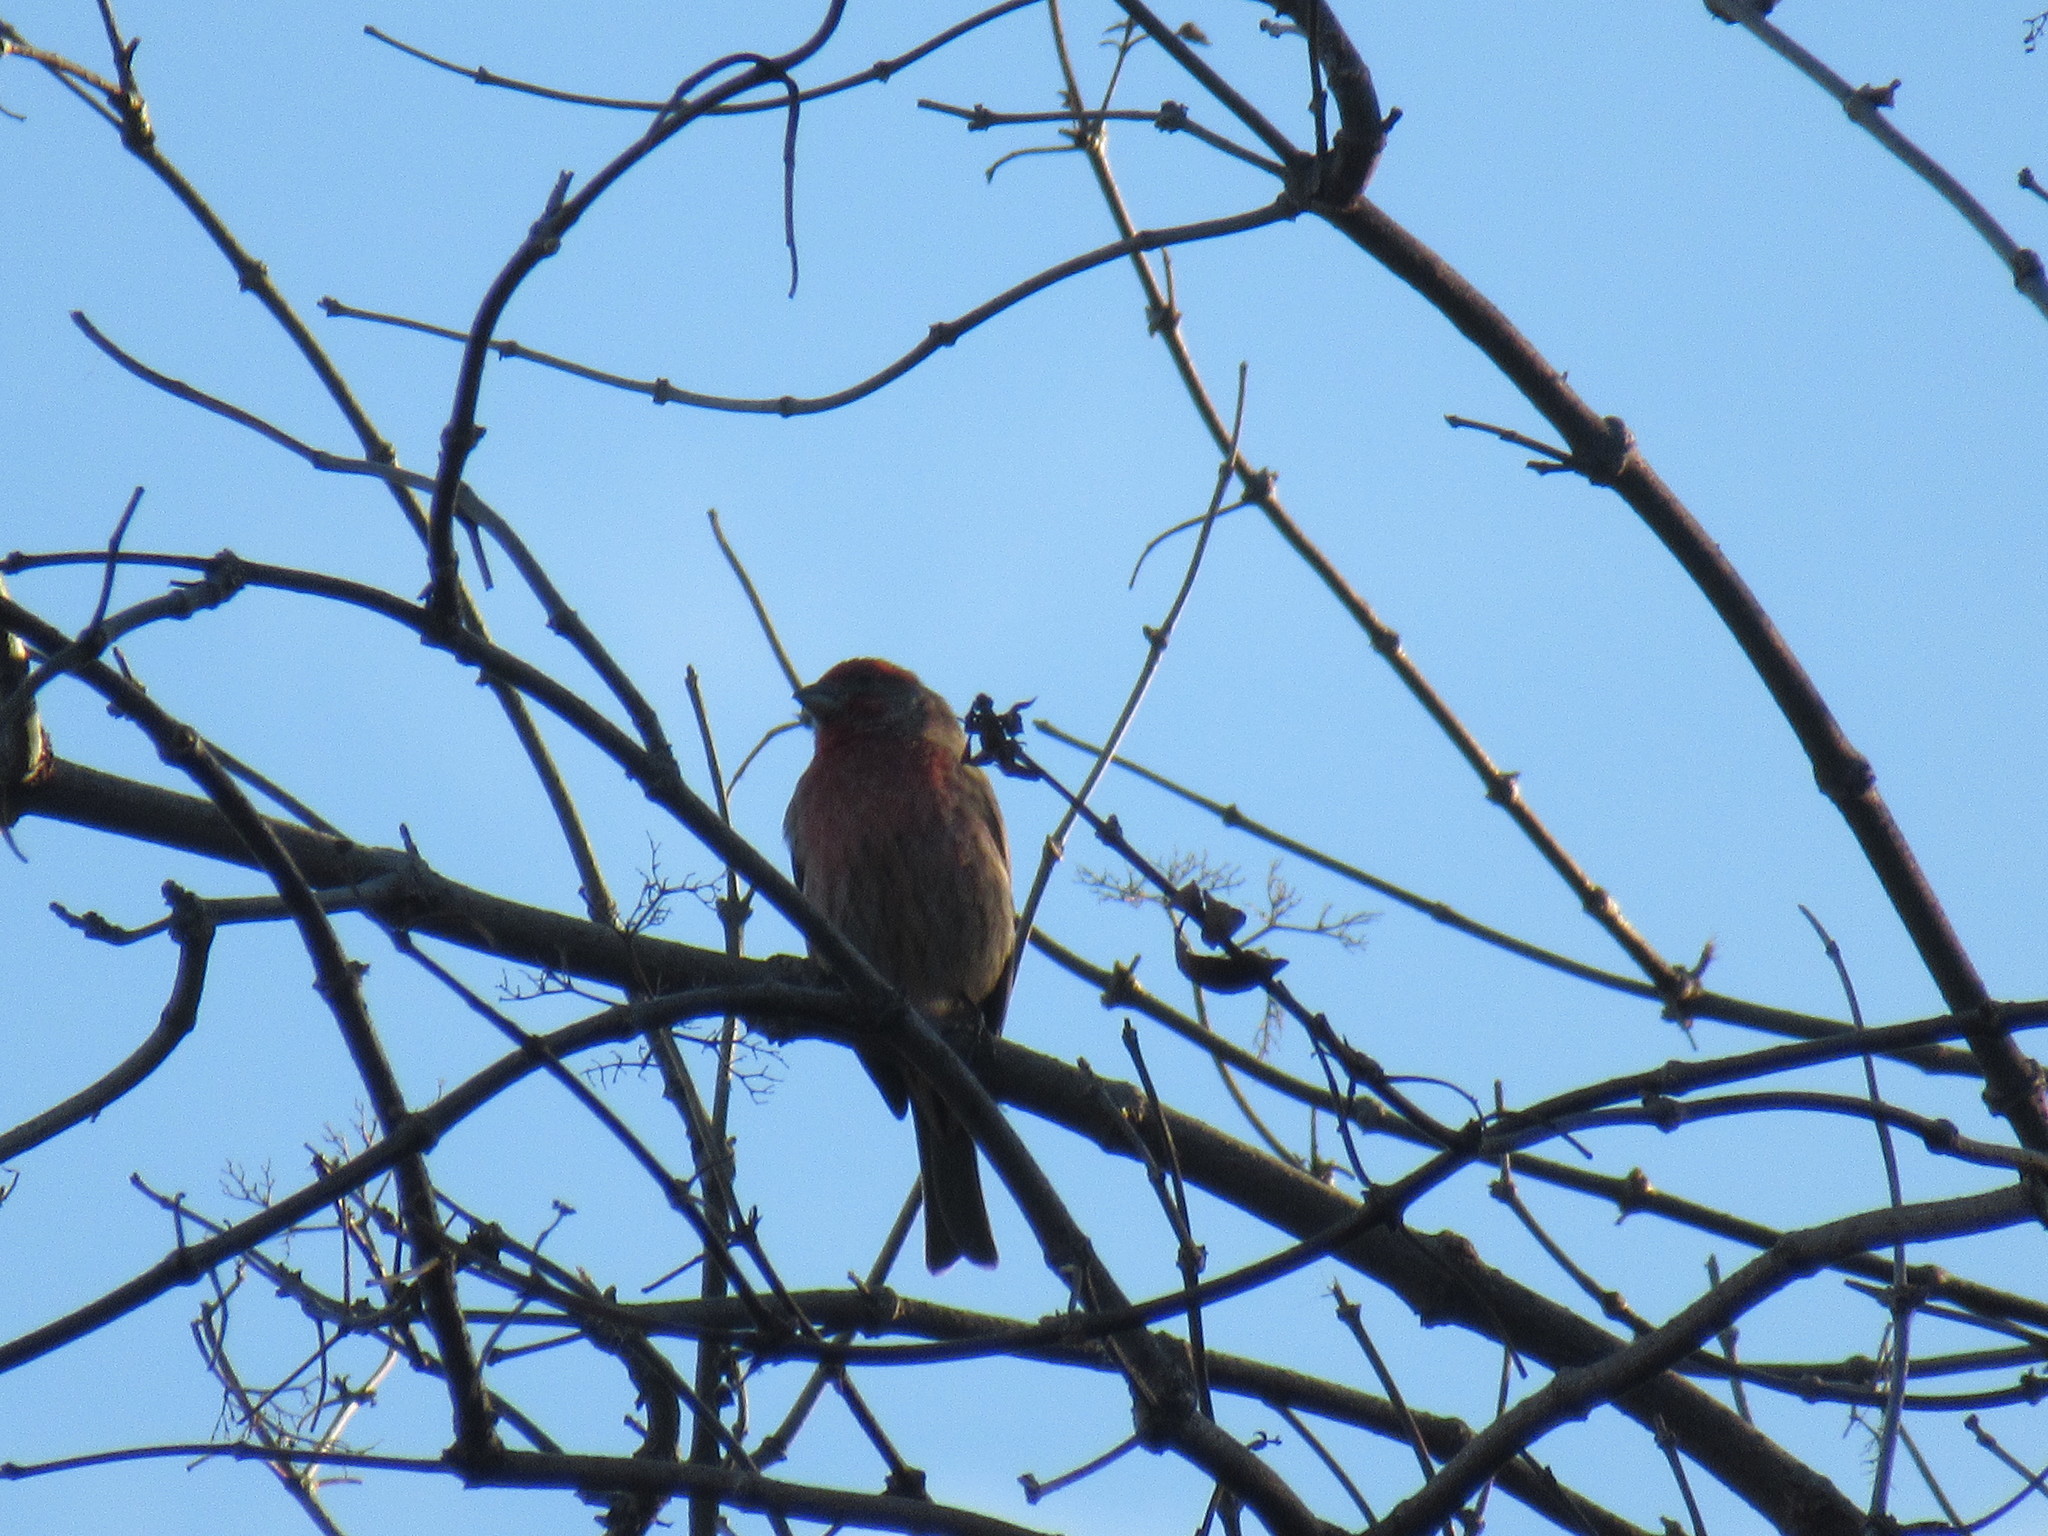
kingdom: Animalia
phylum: Chordata
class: Aves
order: Passeriformes
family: Fringillidae
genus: Haemorhous
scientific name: Haemorhous mexicanus
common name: House finch
